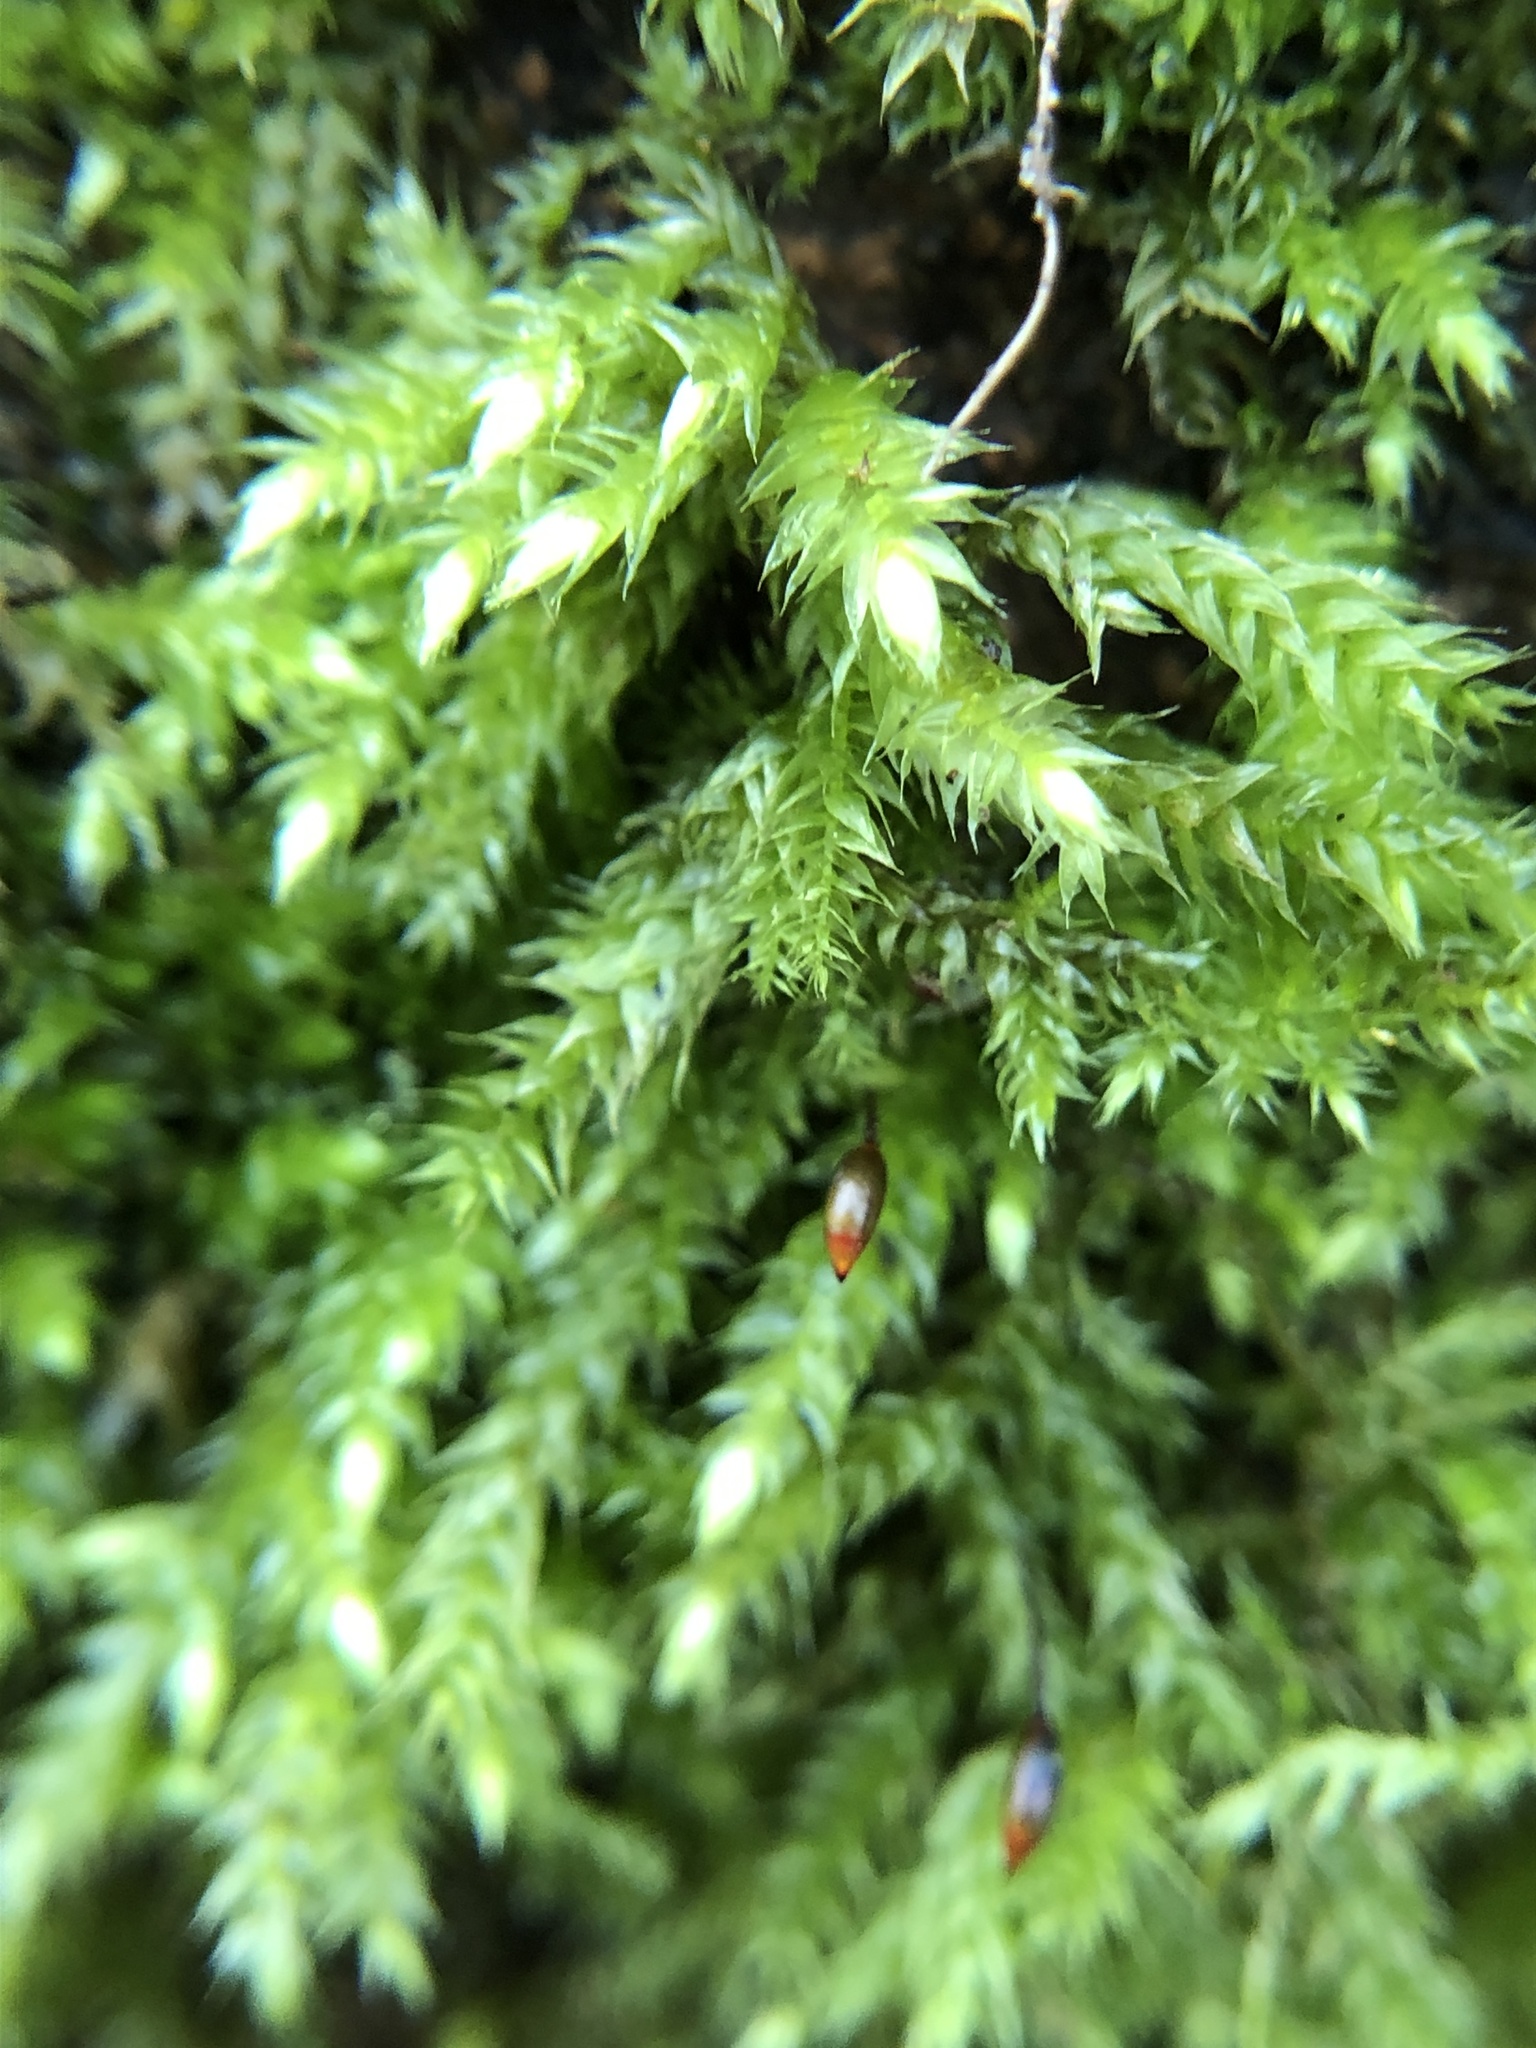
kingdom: Plantae
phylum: Bryophyta
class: Bryopsida
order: Hypnales
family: Brachytheciaceae
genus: Brachythecium
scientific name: Brachythecium rutabulum
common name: Rough-stalked feather-moss
